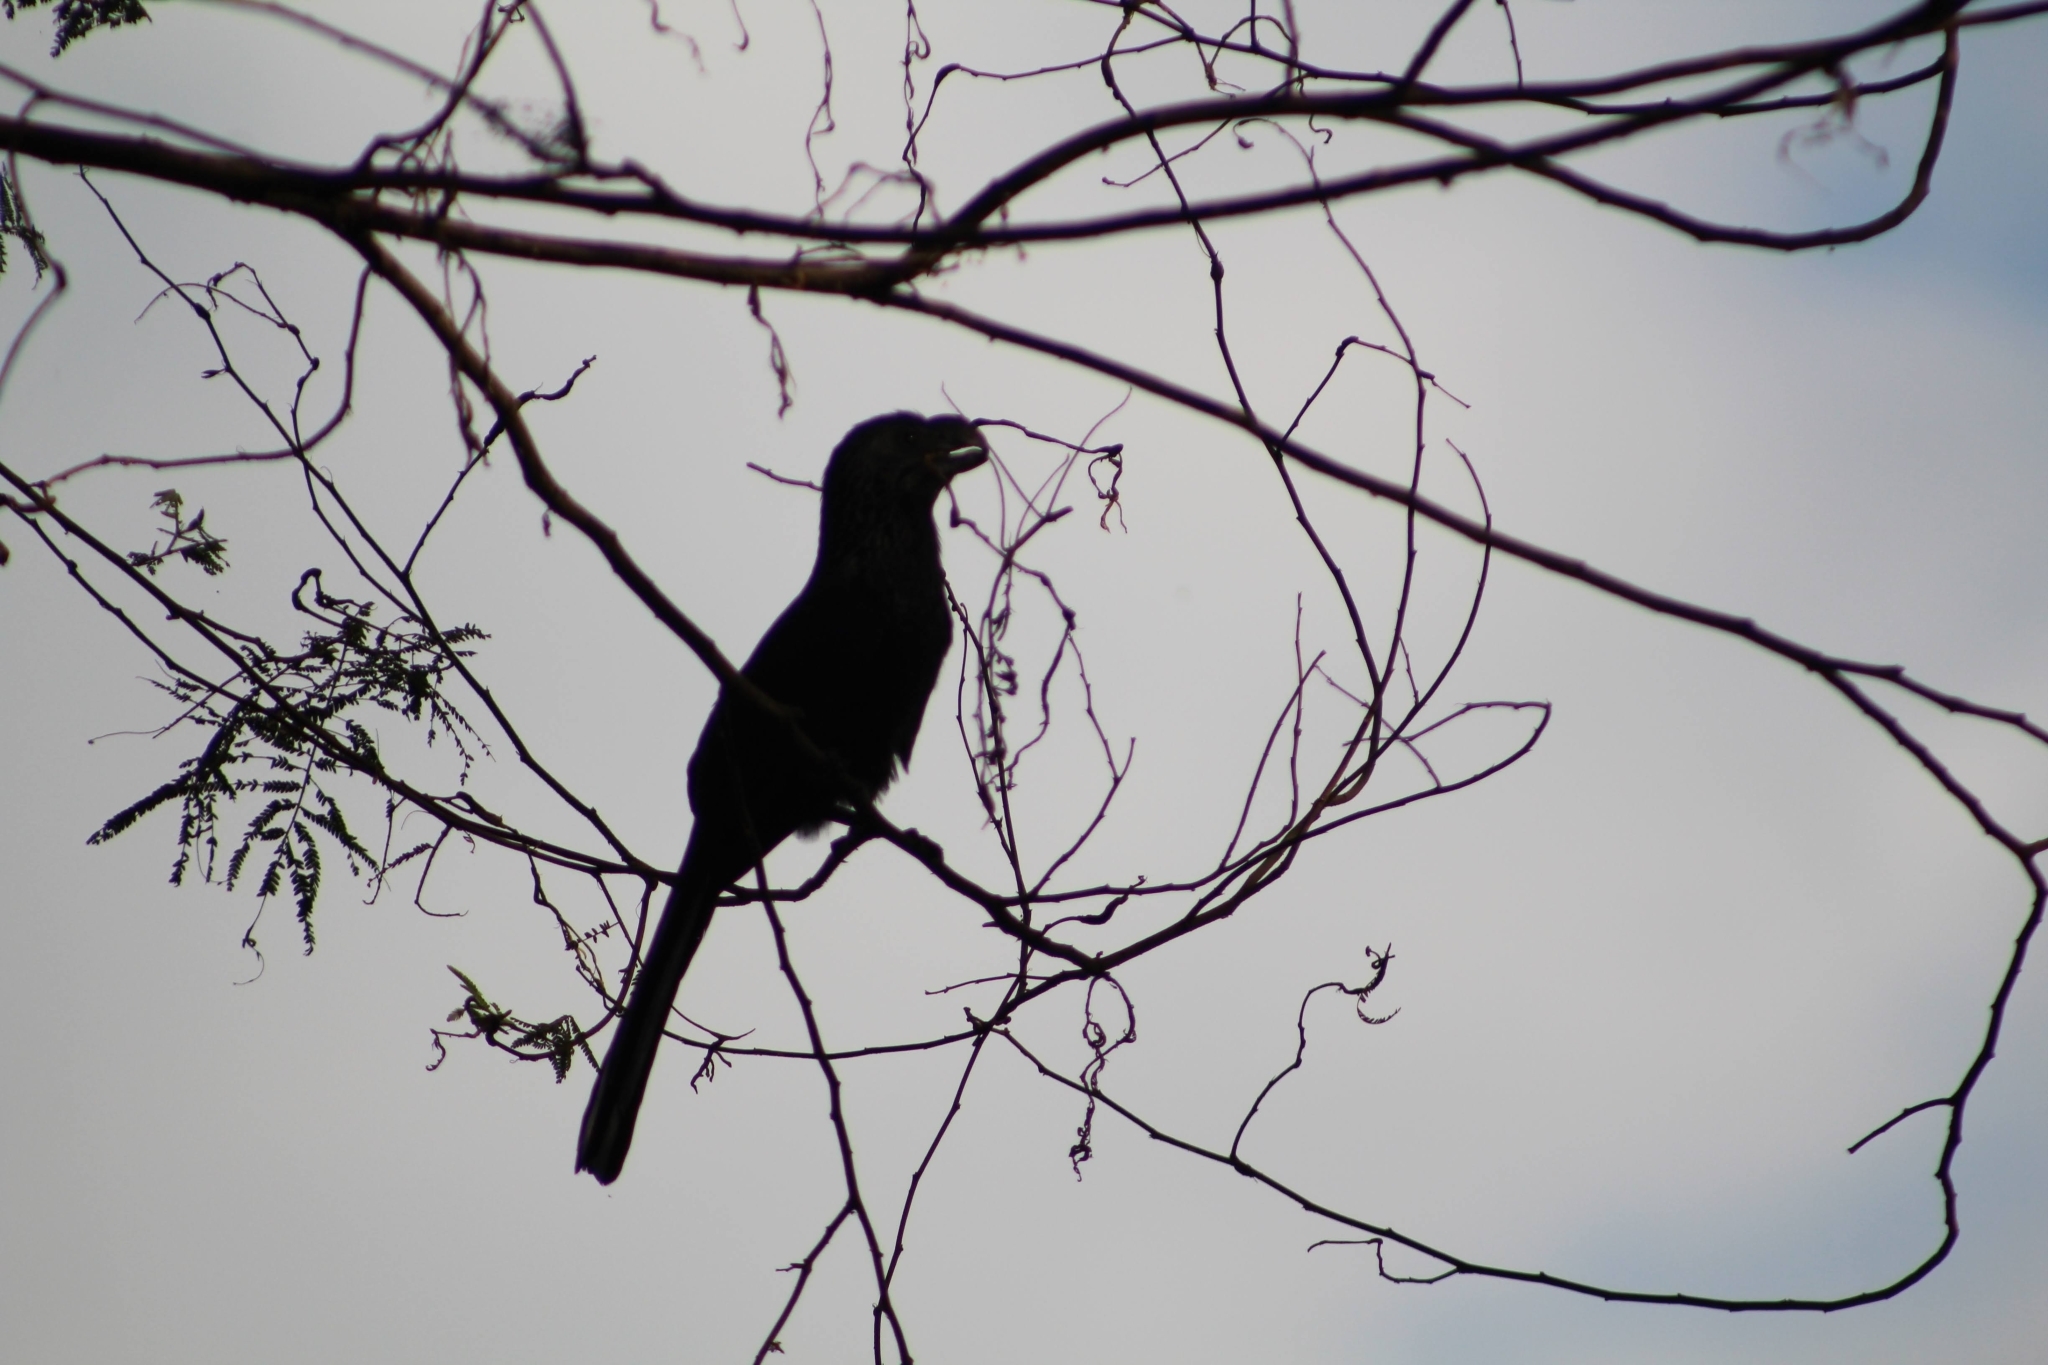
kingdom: Animalia
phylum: Chordata
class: Aves
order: Cuculiformes
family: Cuculidae
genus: Crotophaga
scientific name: Crotophaga ani
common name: Smooth-billed ani
